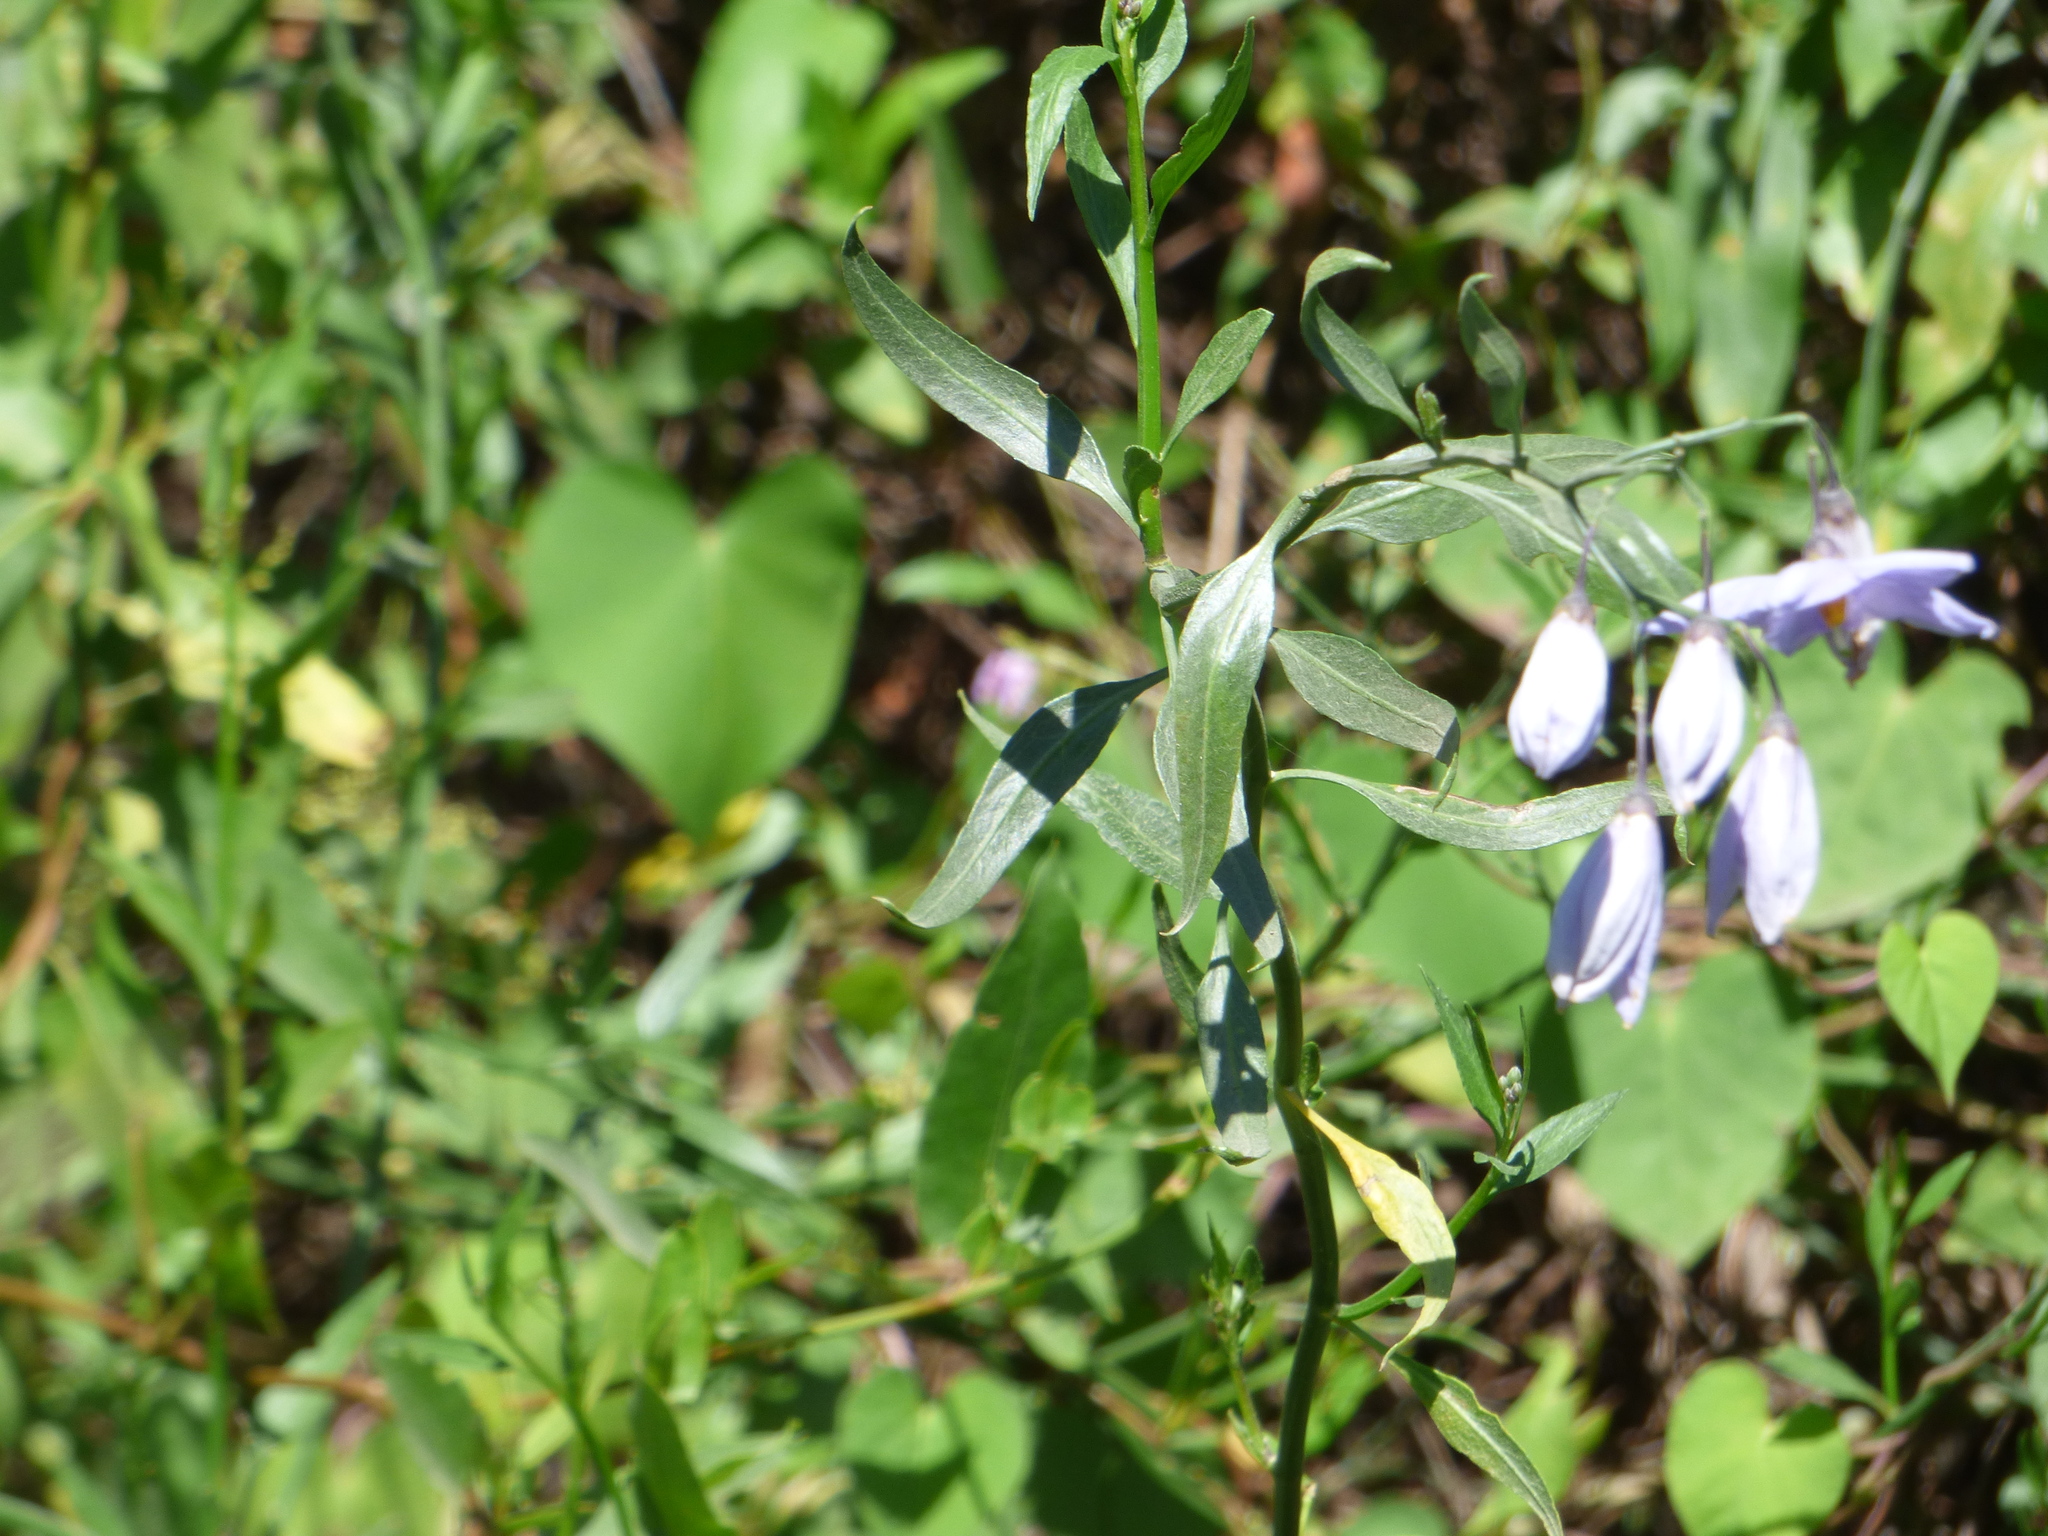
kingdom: Plantae
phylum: Tracheophyta
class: Magnoliopsida
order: Solanales
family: Solanaceae
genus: Solanum
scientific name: Solanum amygdalifolium
